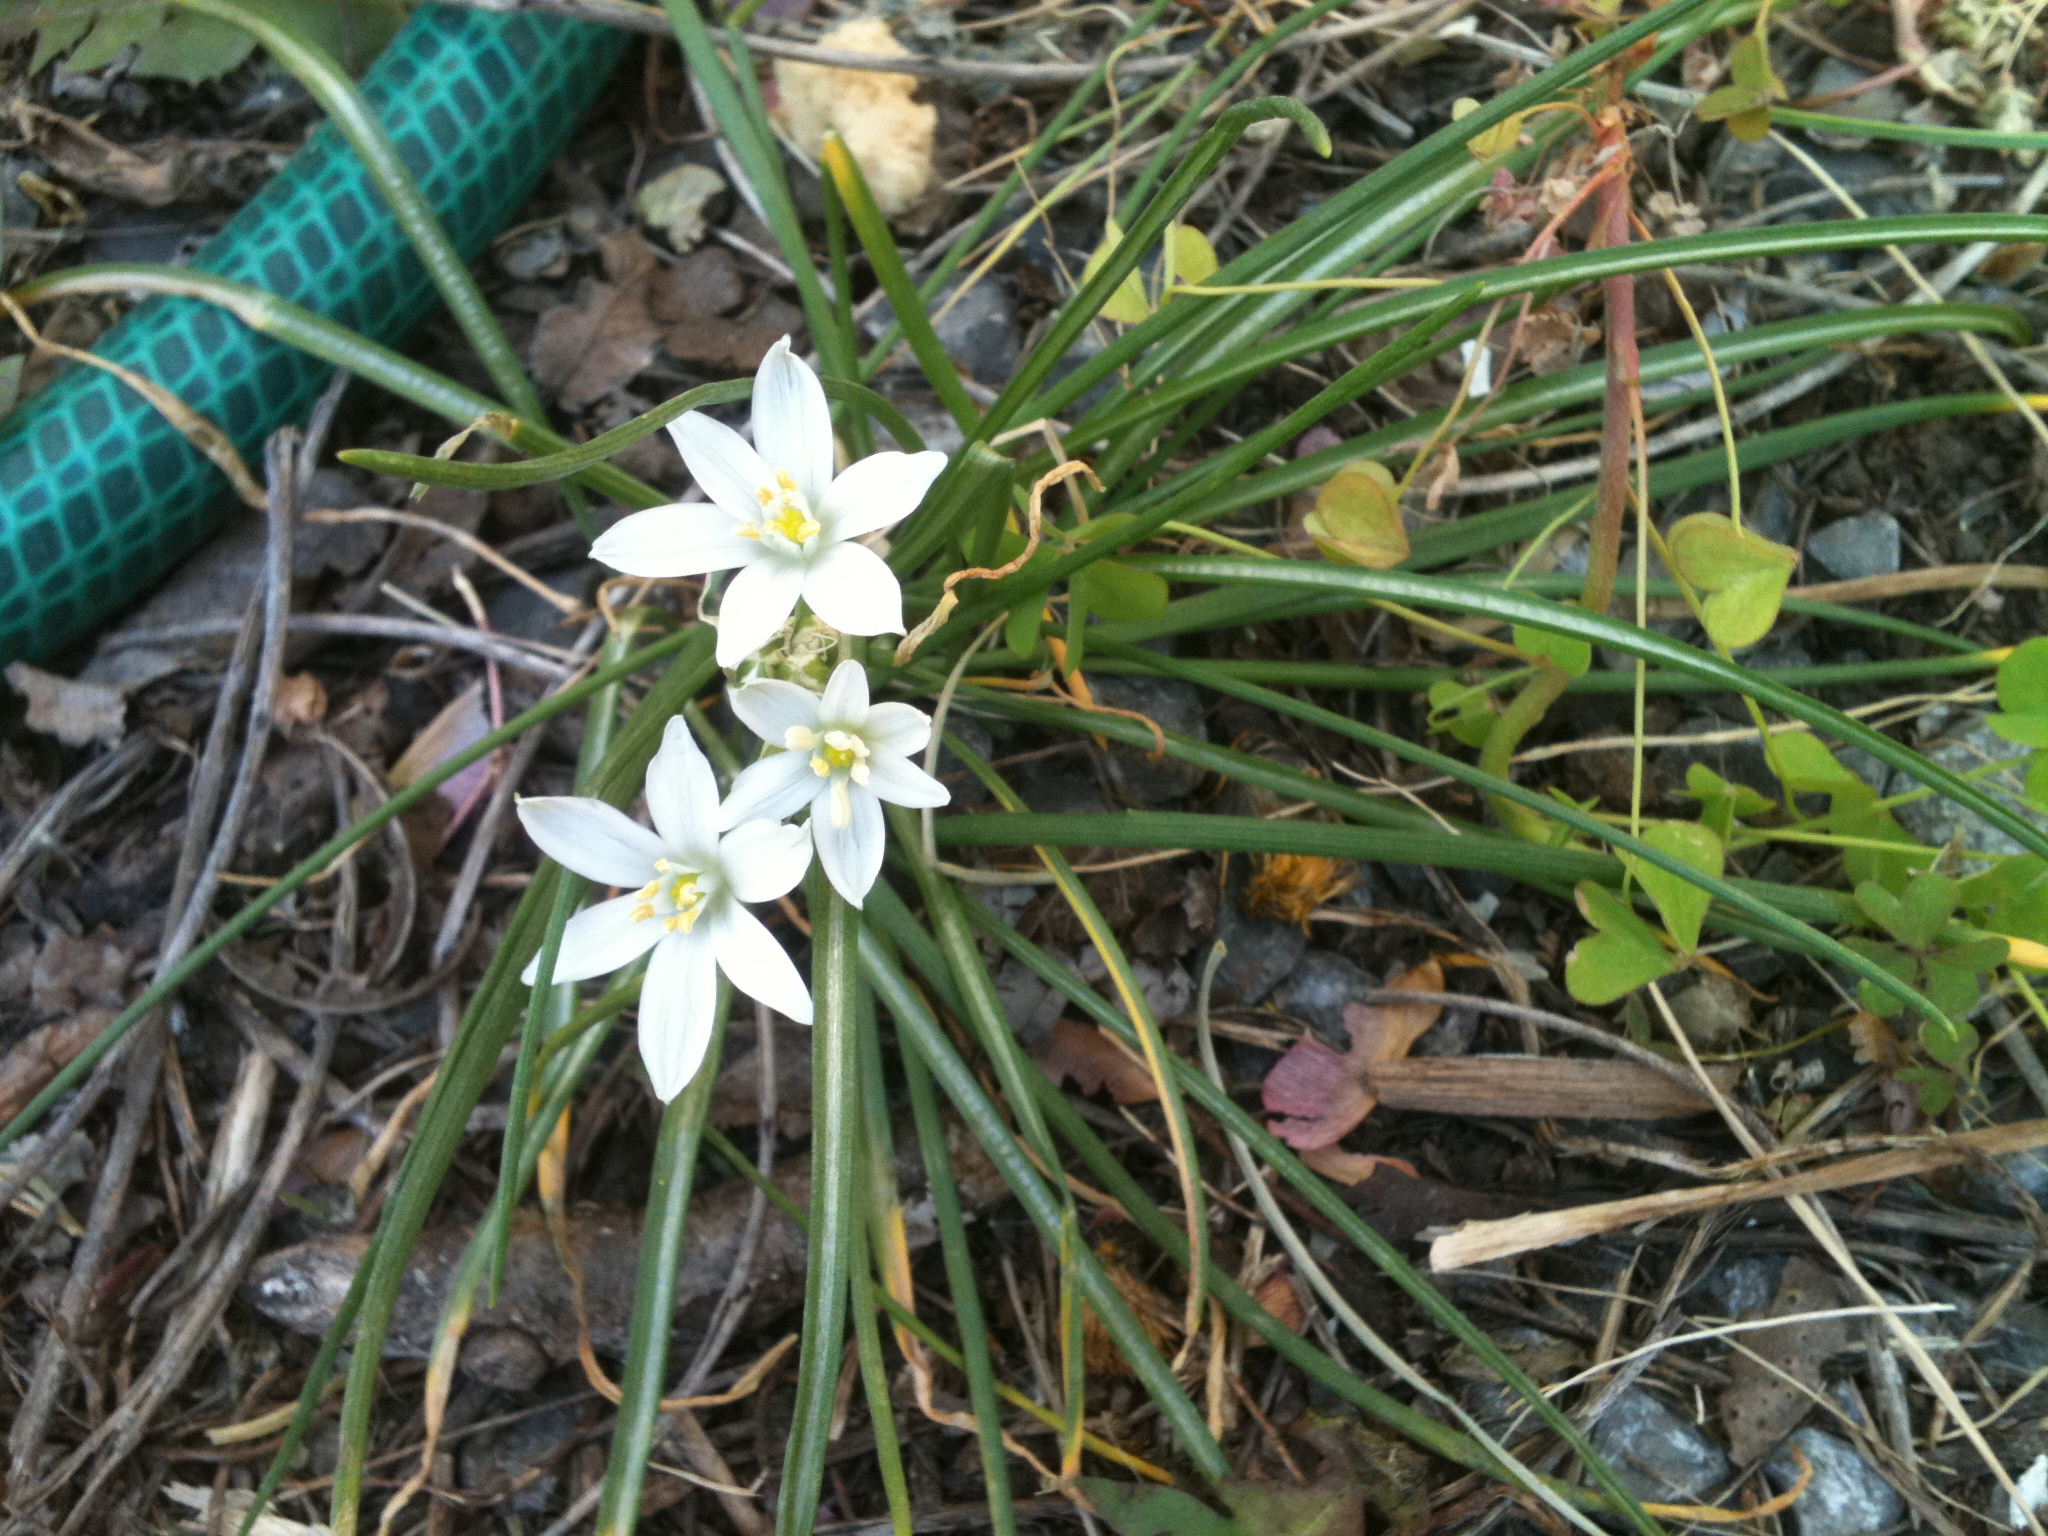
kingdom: Plantae
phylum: Tracheophyta
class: Liliopsida
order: Asparagales
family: Asparagaceae
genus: Ornithogalum
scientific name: Ornithogalum umbellatum
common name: Garden star-of-bethlehem
